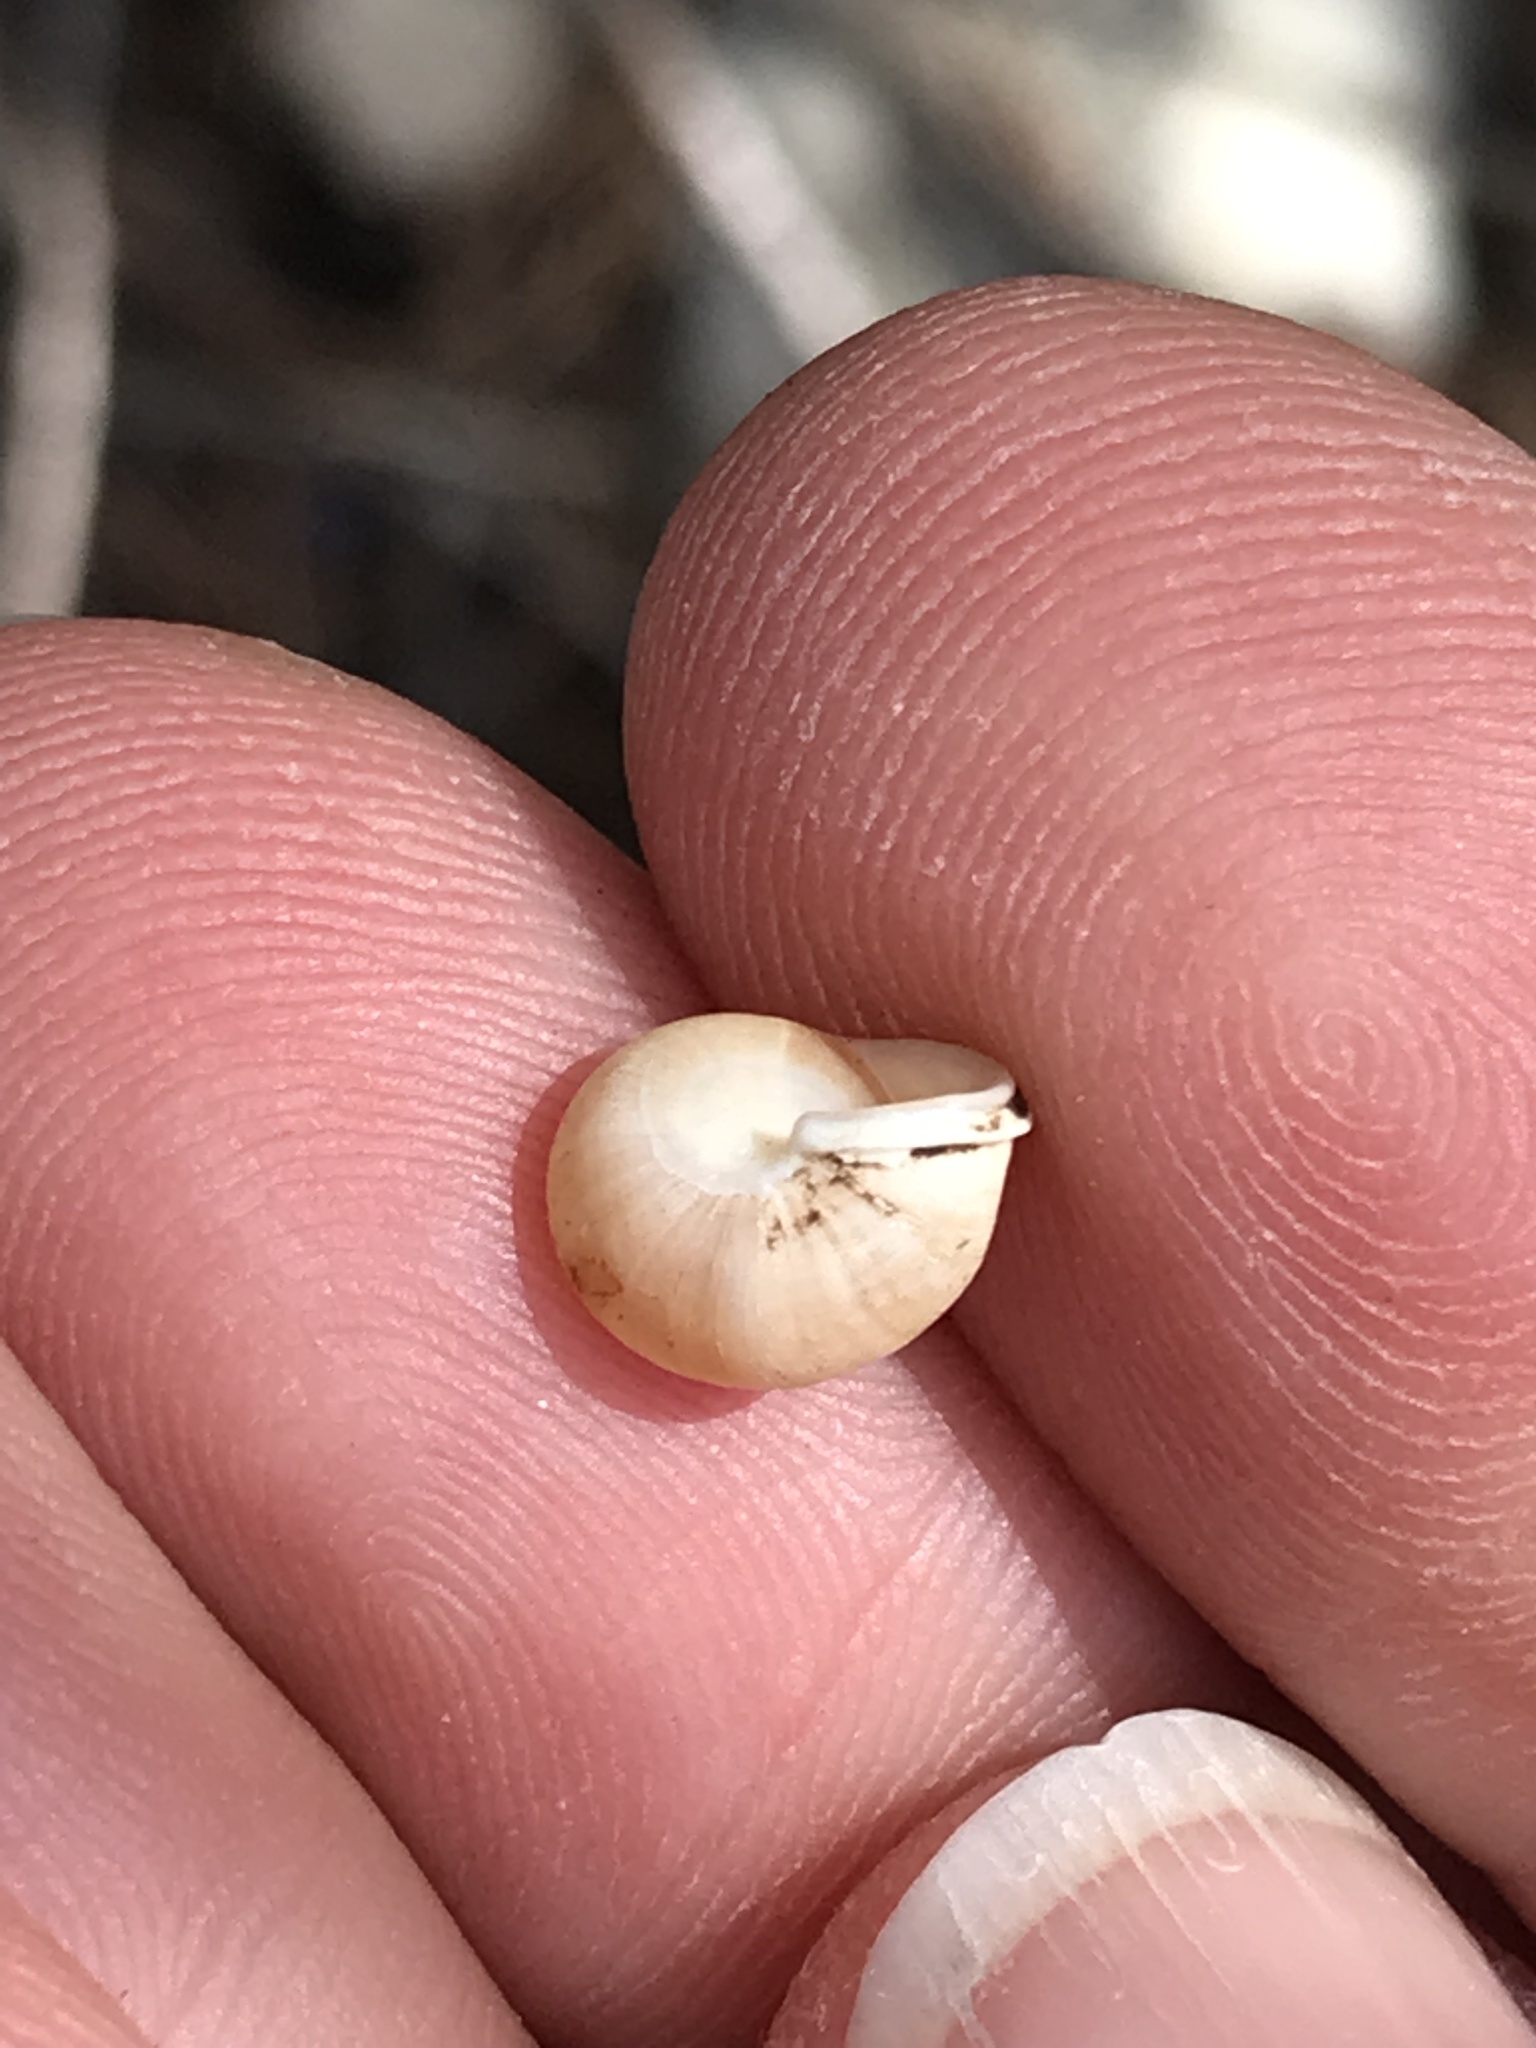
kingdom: Animalia
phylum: Mollusca
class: Gastropoda
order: Cycloneritida
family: Helicinidae
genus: Helicina
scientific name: Helicina orbiculata
